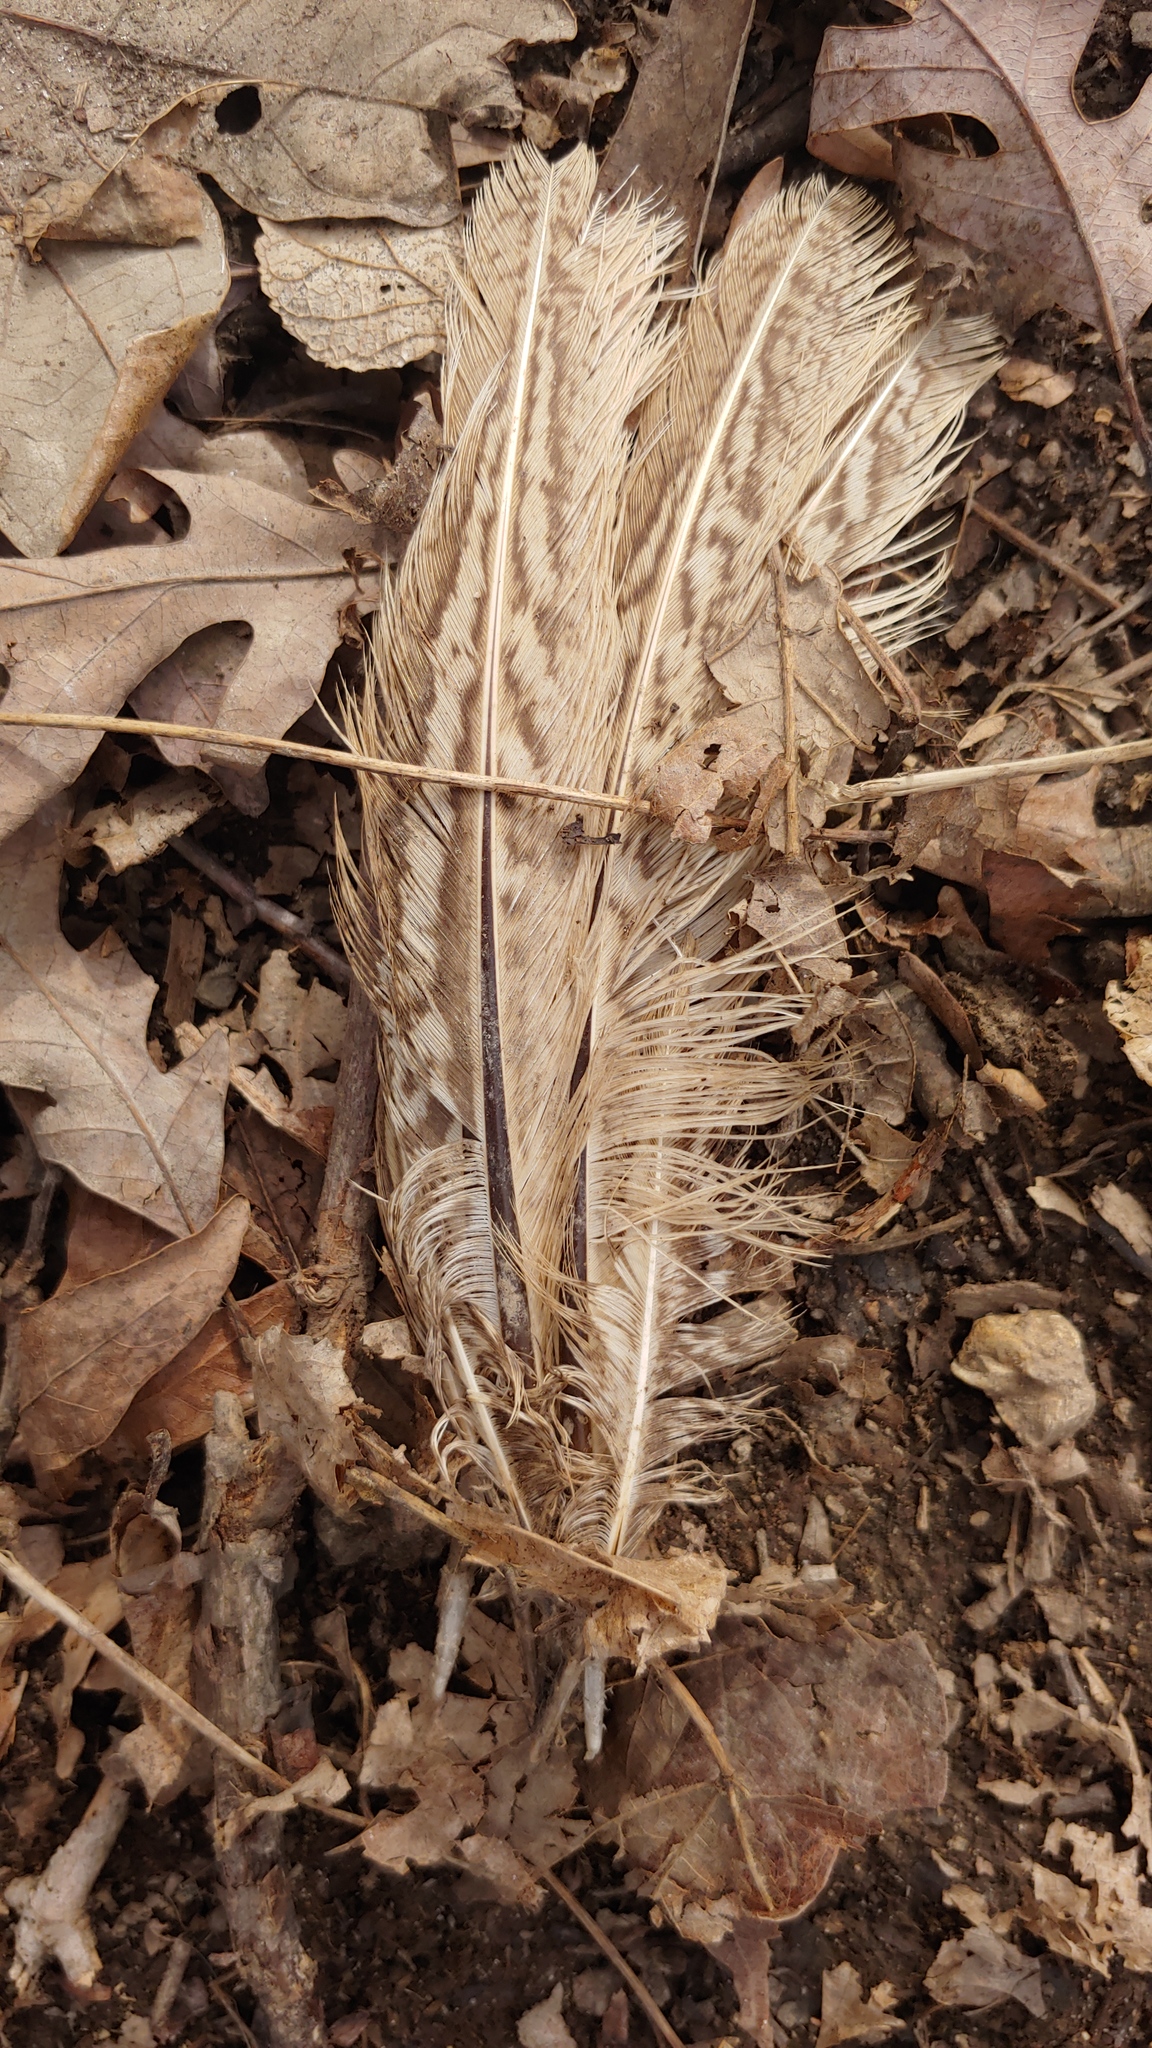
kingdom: Animalia
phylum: Chordata
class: Aves
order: Galliformes
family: Phasianidae
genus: Phasianus
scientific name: Phasianus colchicus
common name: Common pheasant
